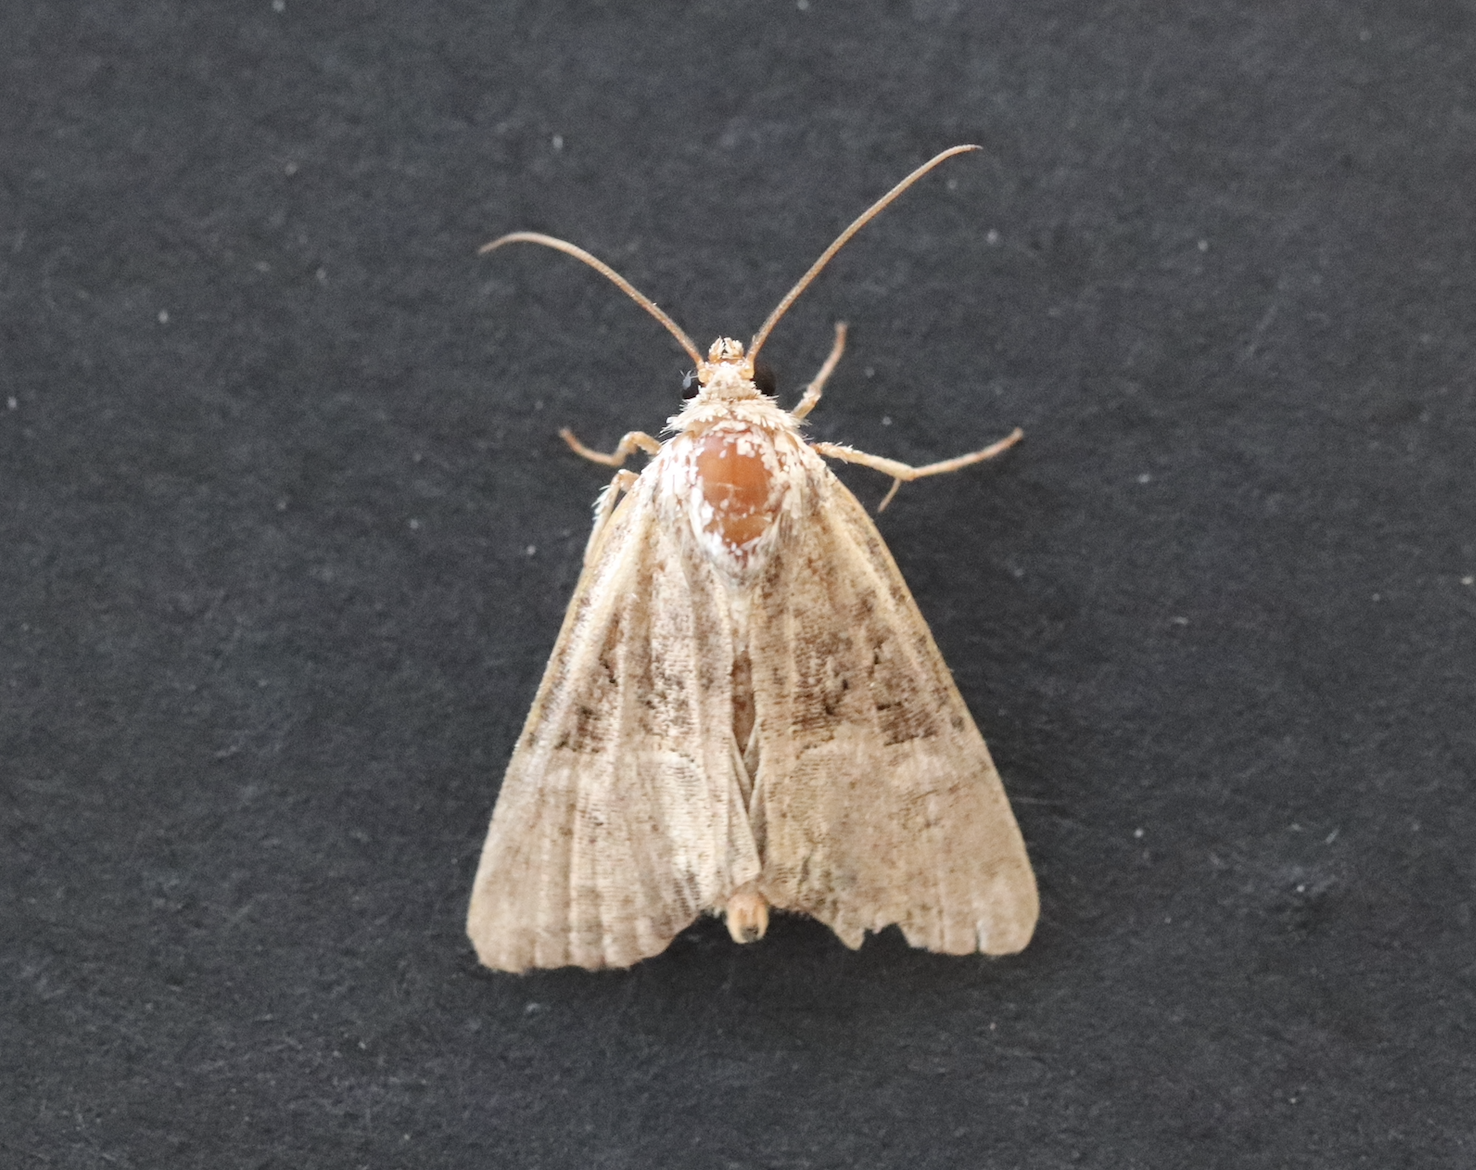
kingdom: Animalia
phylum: Arthropoda
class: Insecta
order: Lepidoptera
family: Noctuidae
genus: Mesoligia
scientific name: Mesoligia furuncula
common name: Cloaked minor
